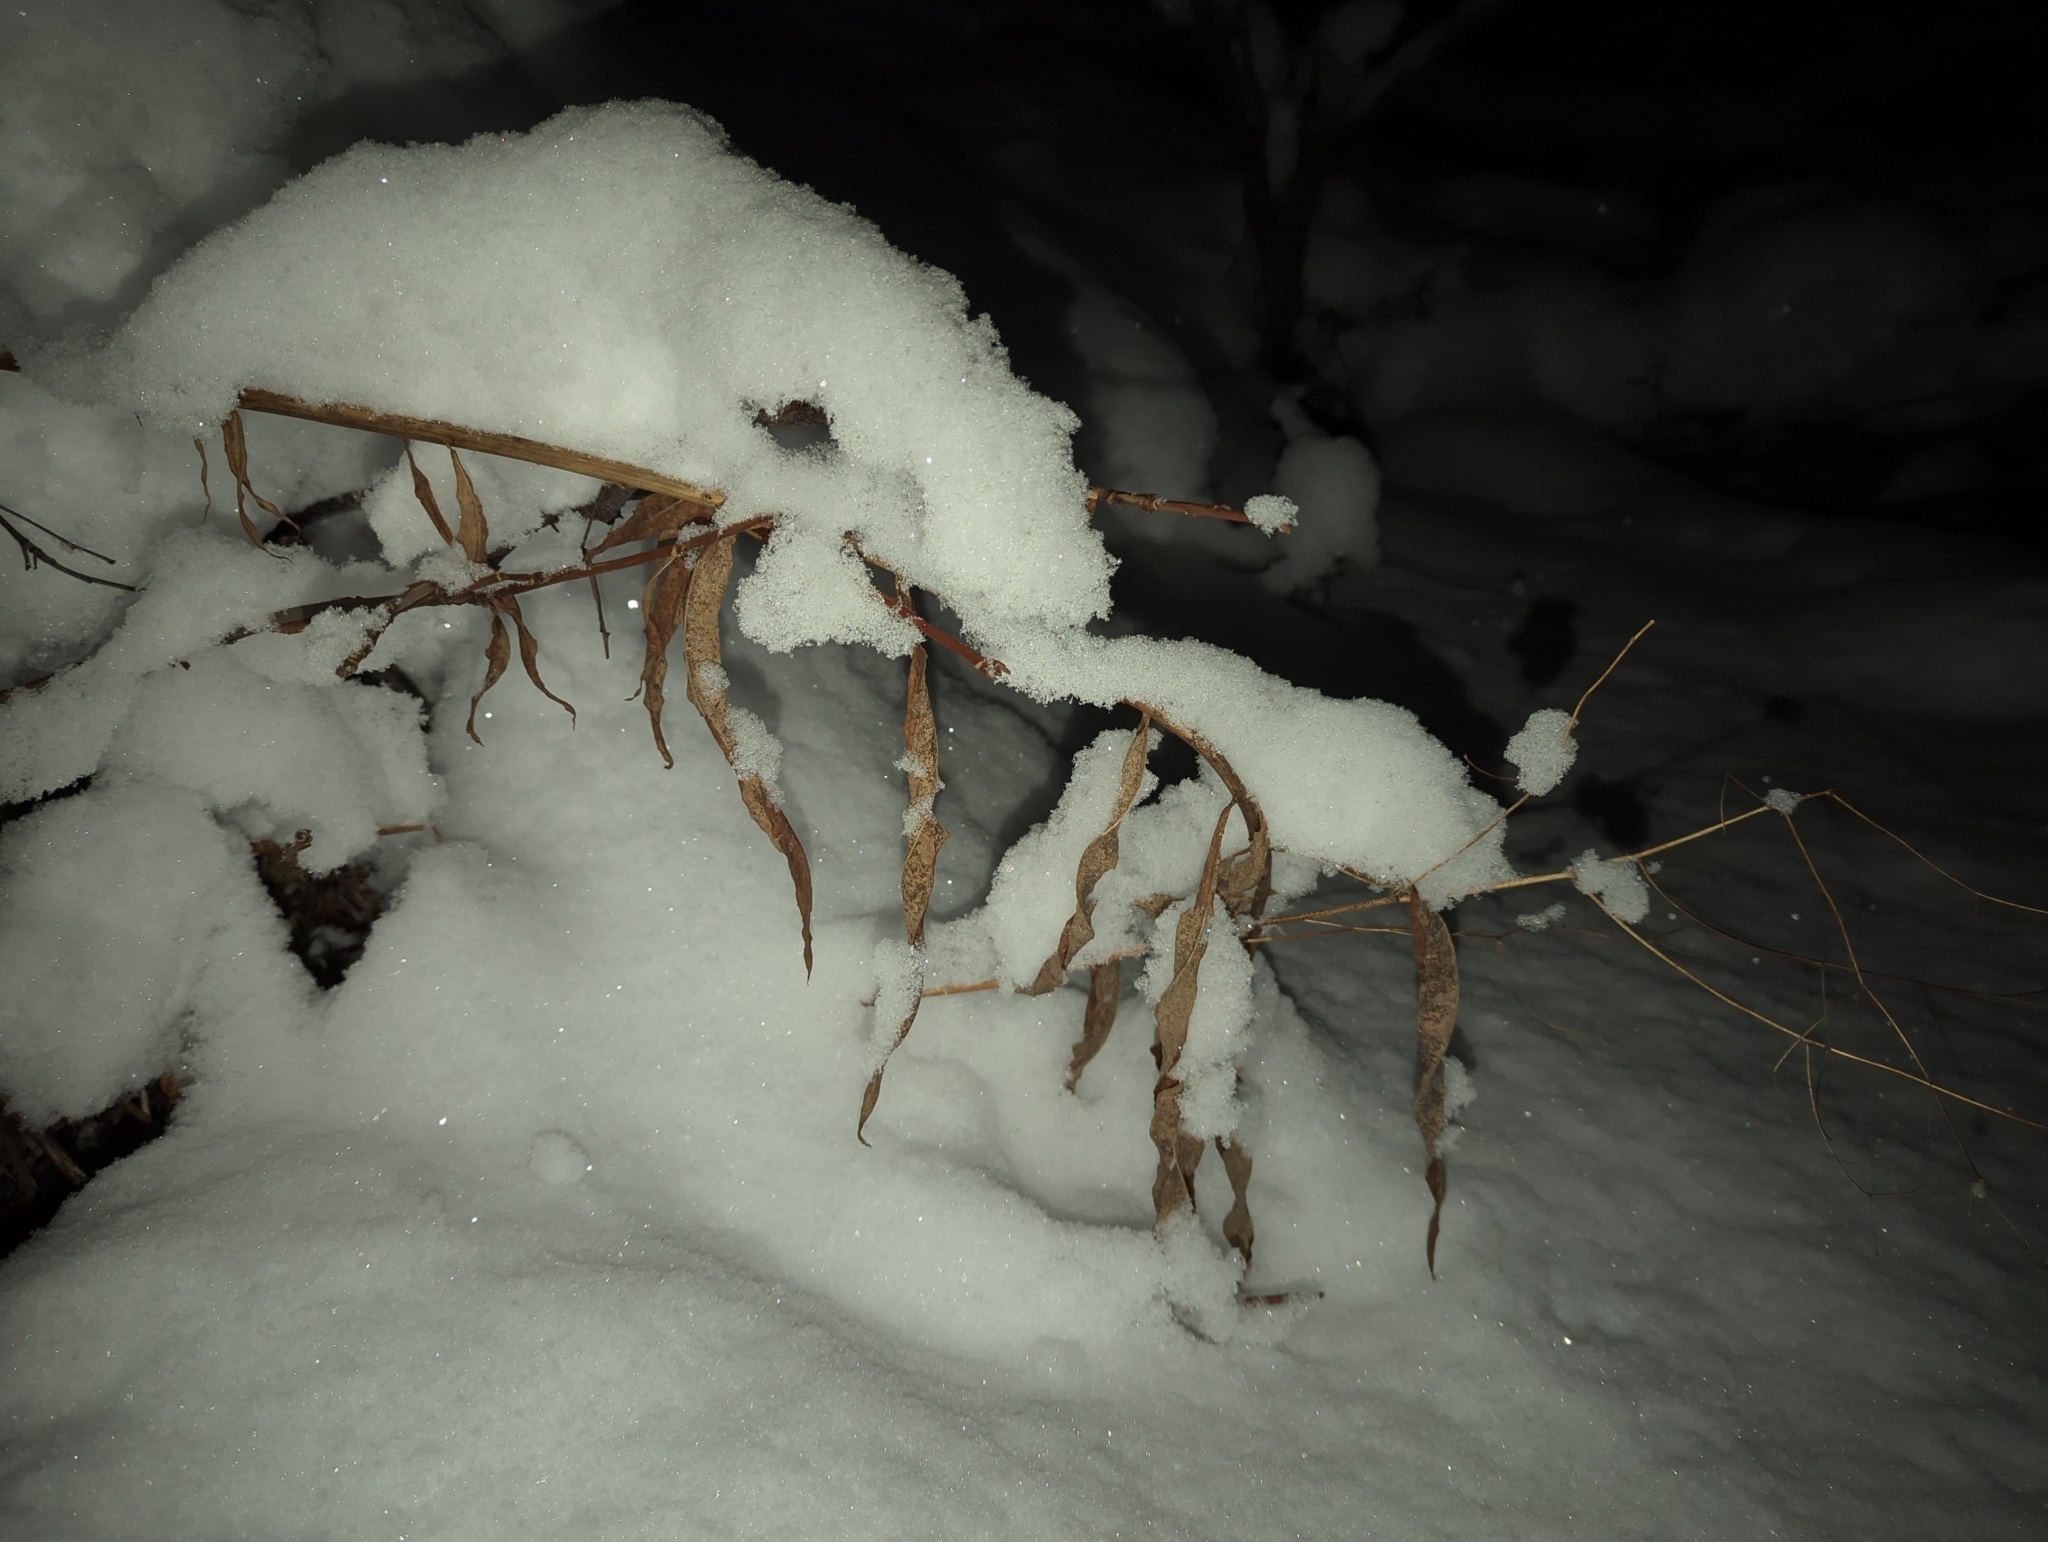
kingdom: Plantae
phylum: Tracheophyta
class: Magnoliopsida
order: Myrtales
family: Onagraceae
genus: Chamaenerion
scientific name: Chamaenerion angustifolium
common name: Fireweed
